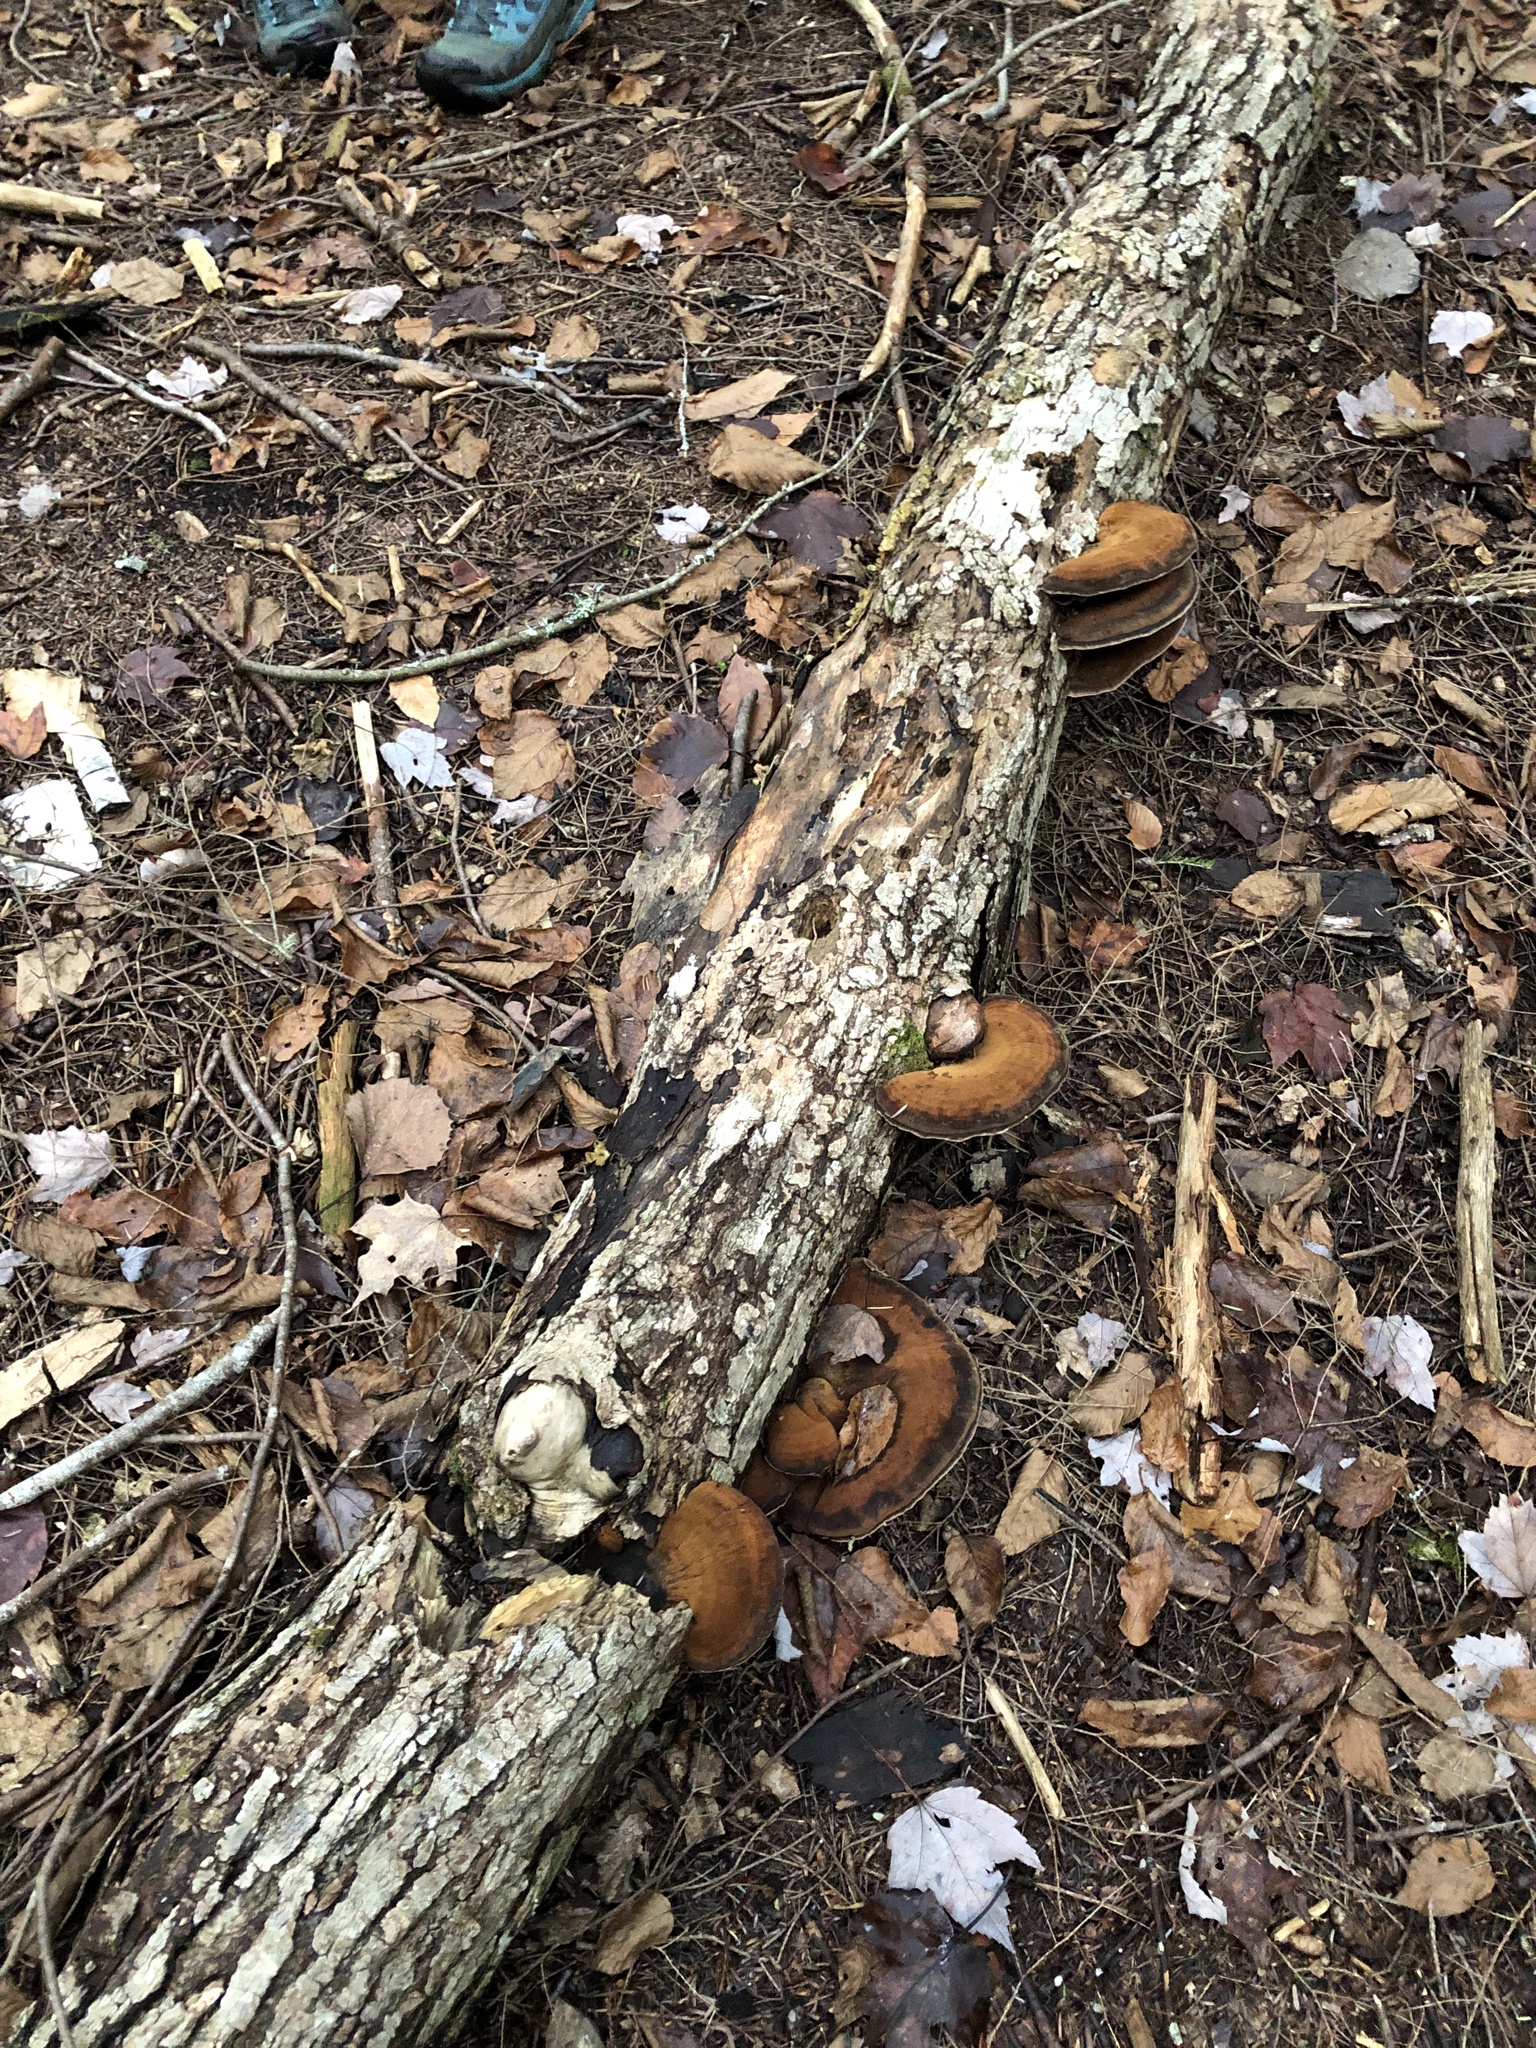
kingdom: Fungi
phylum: Basidiomycota
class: Agaricomycetes
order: Polyporales
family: Ischnodermataceae
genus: Ischnoderma
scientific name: Ischnoderma resinosum
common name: Resinous polypore
